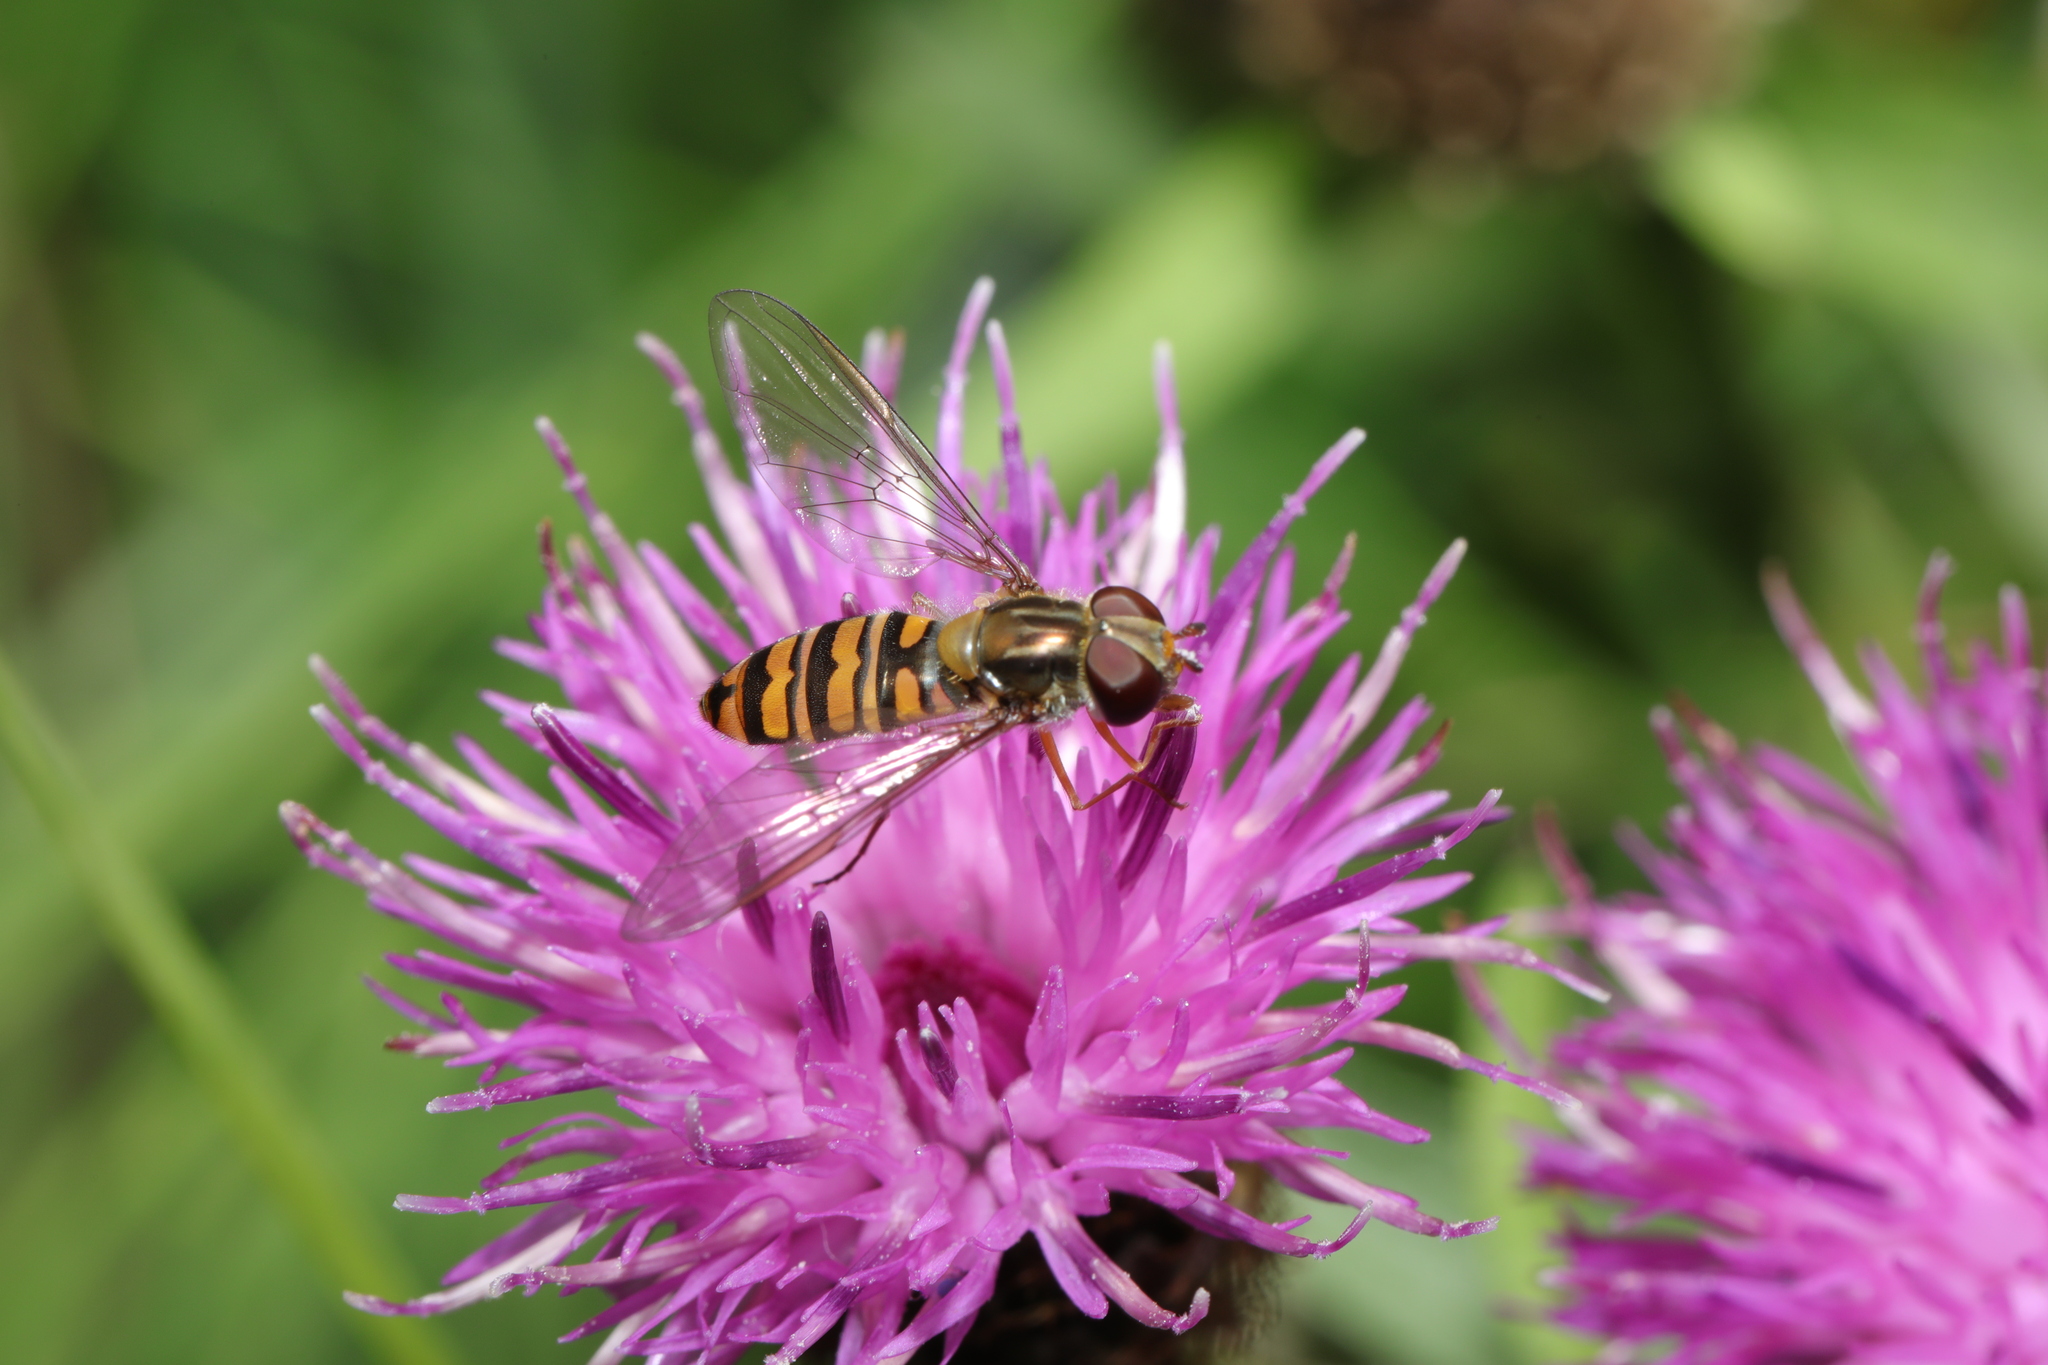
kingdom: Animalia
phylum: Arthropoda
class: Insecta
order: Diptera
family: Syrphidae
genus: Episyrphus
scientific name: Episyrphus balteatus
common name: Marmalade hoverfly
